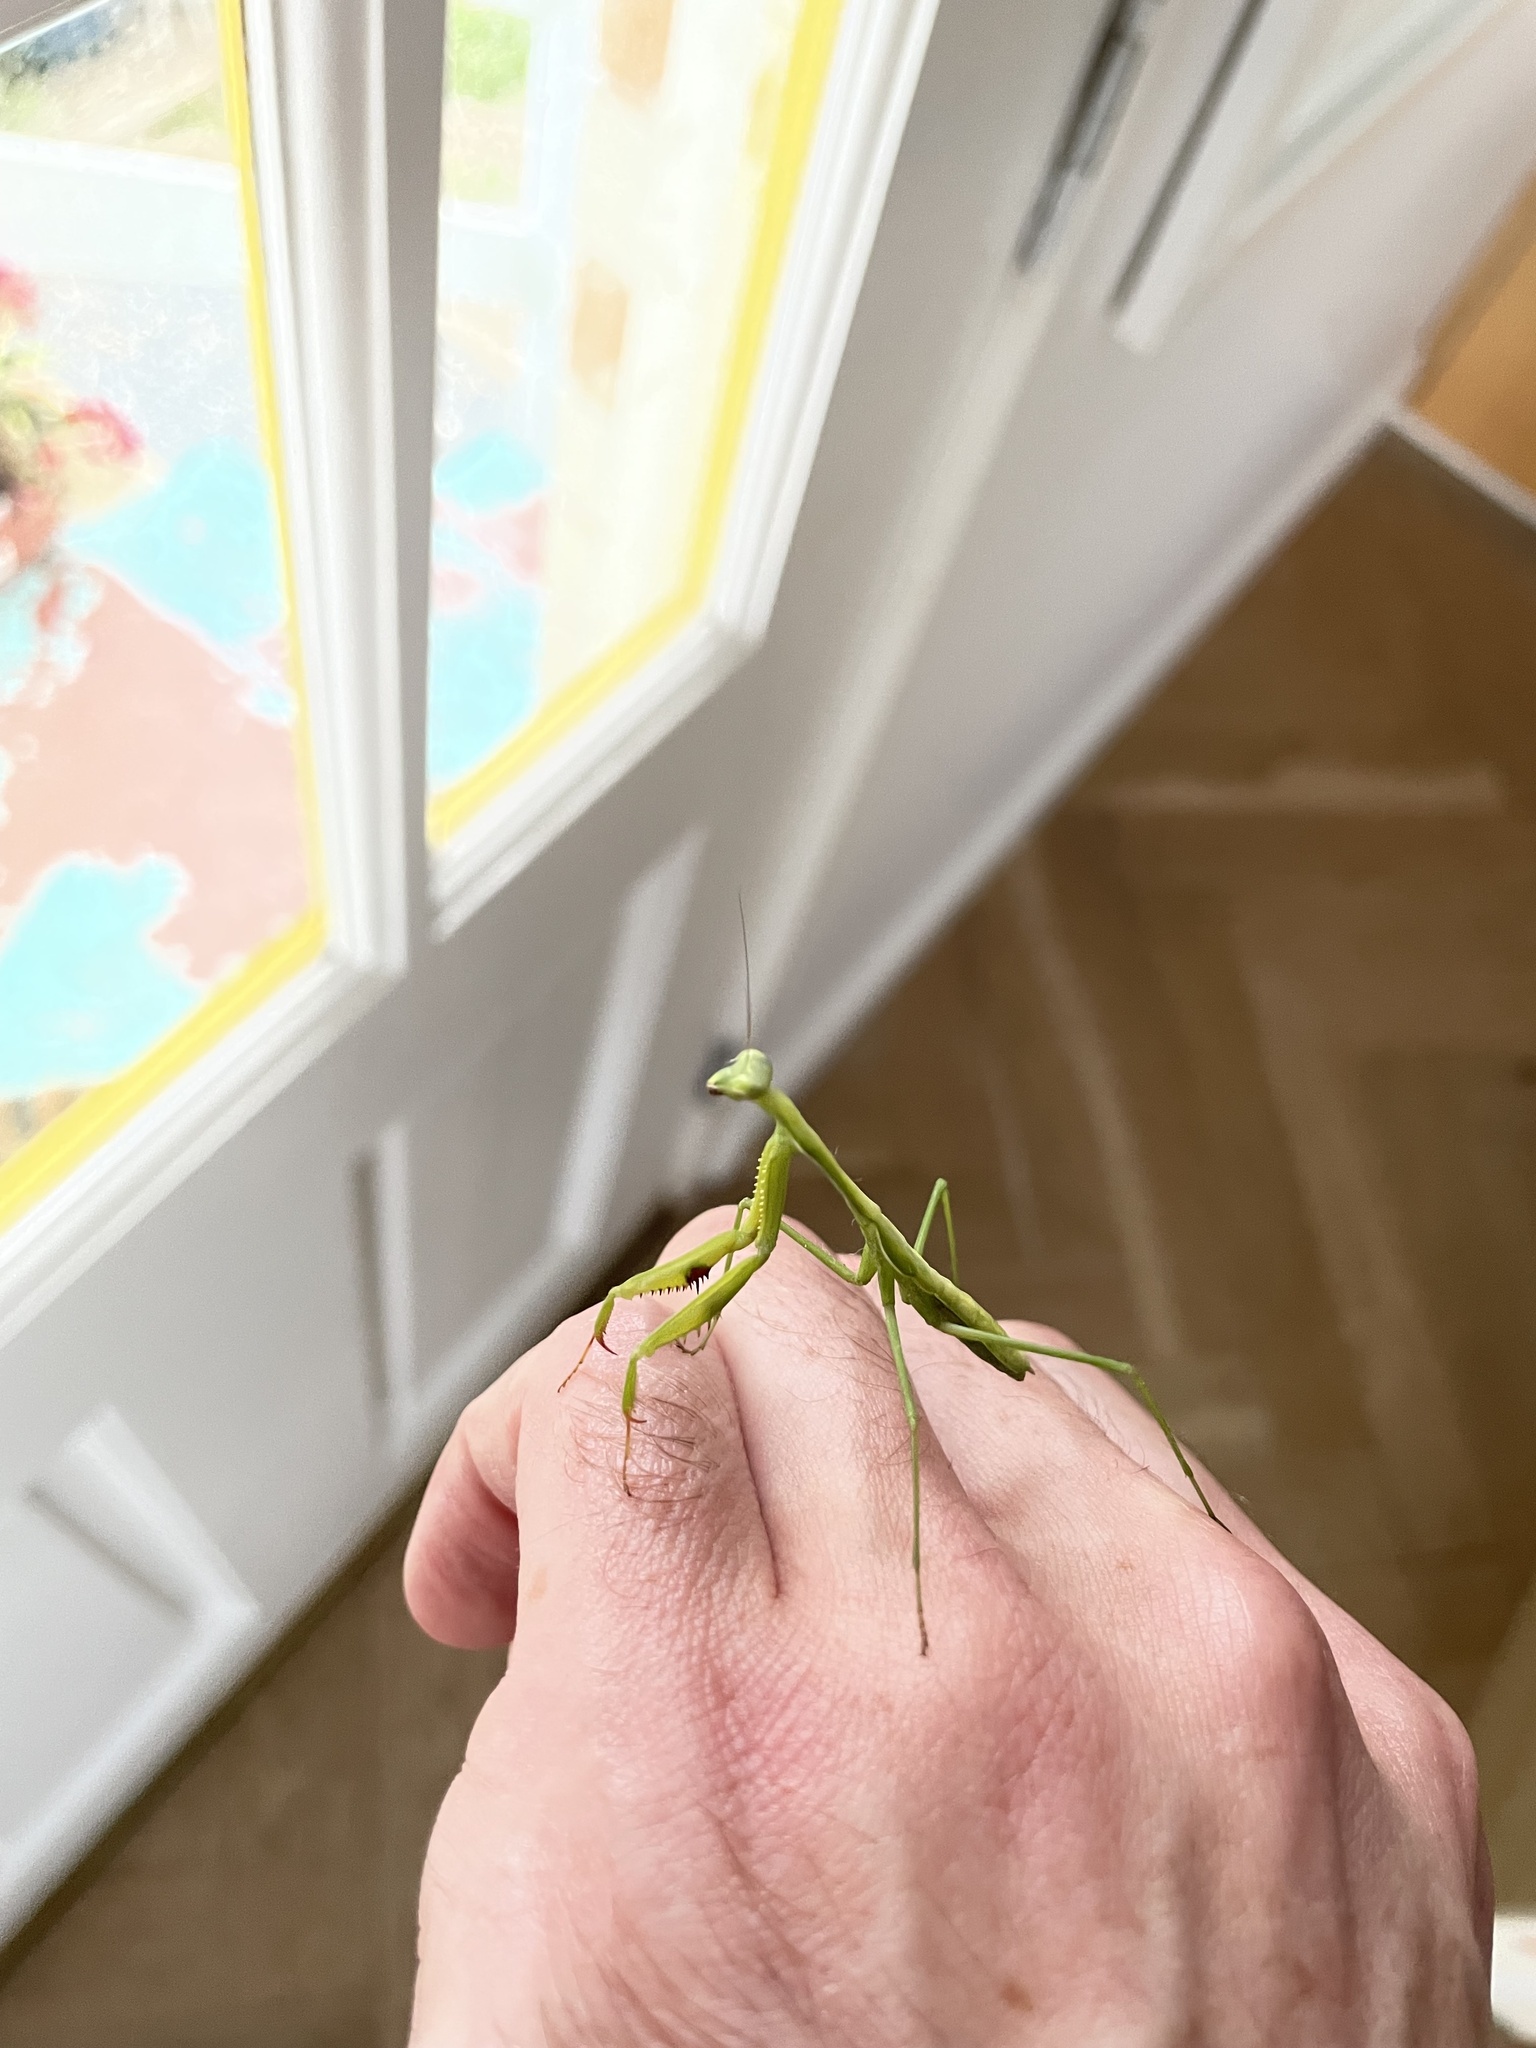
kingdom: Animalia
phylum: Arthropoda
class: Insecta
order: Mantodea
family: Mantidae
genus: Pseudomantis
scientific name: Pseudomantis albofimbriata
